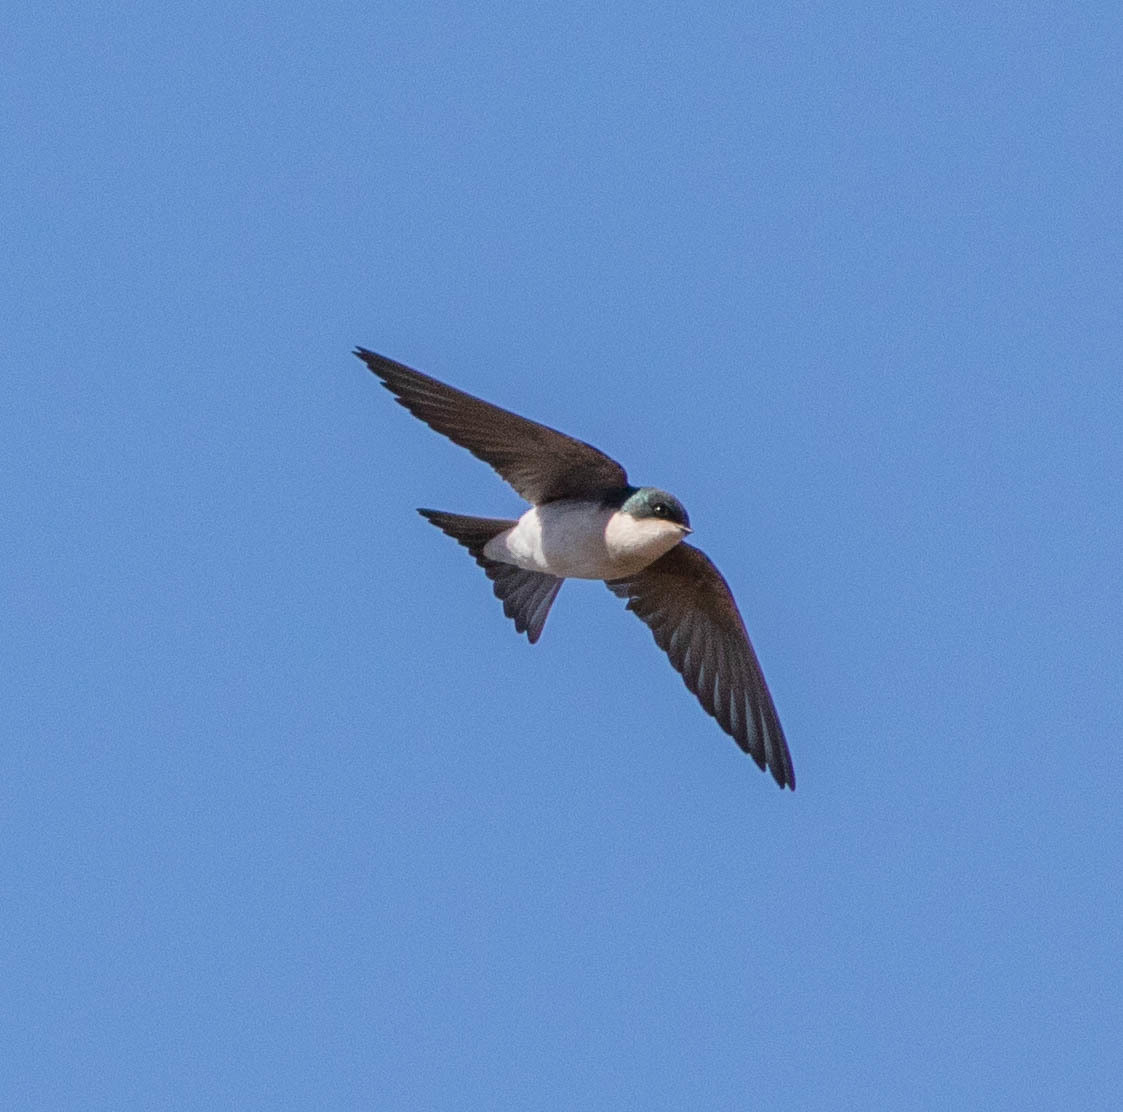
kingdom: Animalia
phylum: Chordata
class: Aves
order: Passeriformes
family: Hirundinidae
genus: Tachycineta
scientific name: Tachycineta bicolor
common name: Tree swallow
